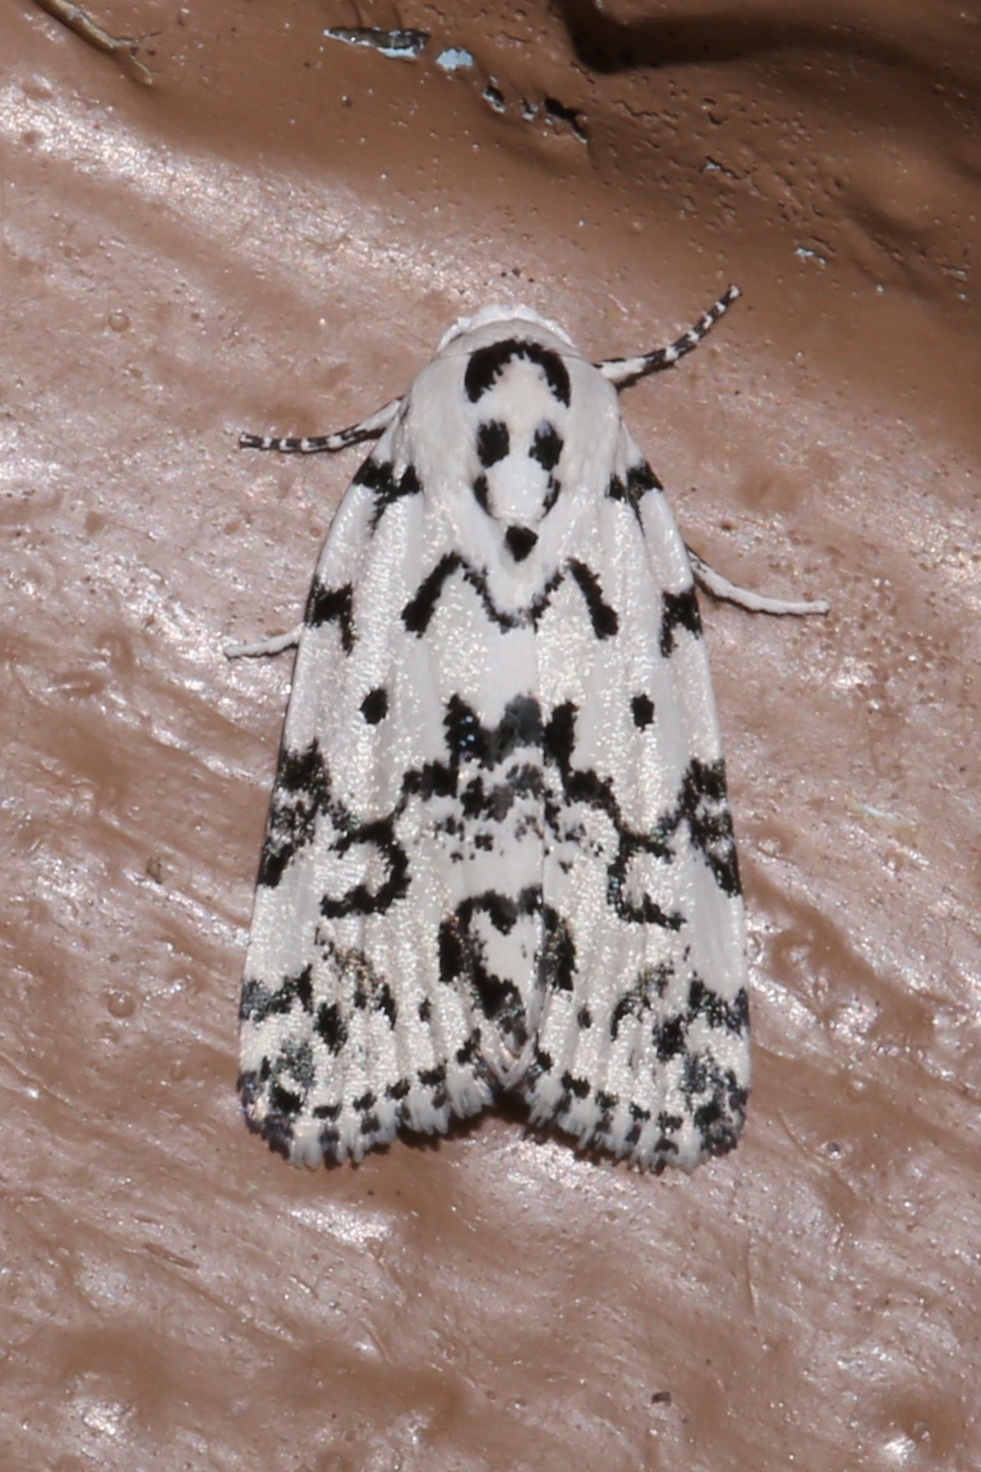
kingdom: Animalia
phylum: Arthropoda
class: Insecta
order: Lepidoptera
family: Noctuidae
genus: Polygrammate
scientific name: Polygrammate hebraeicum
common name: Hebrew moth
